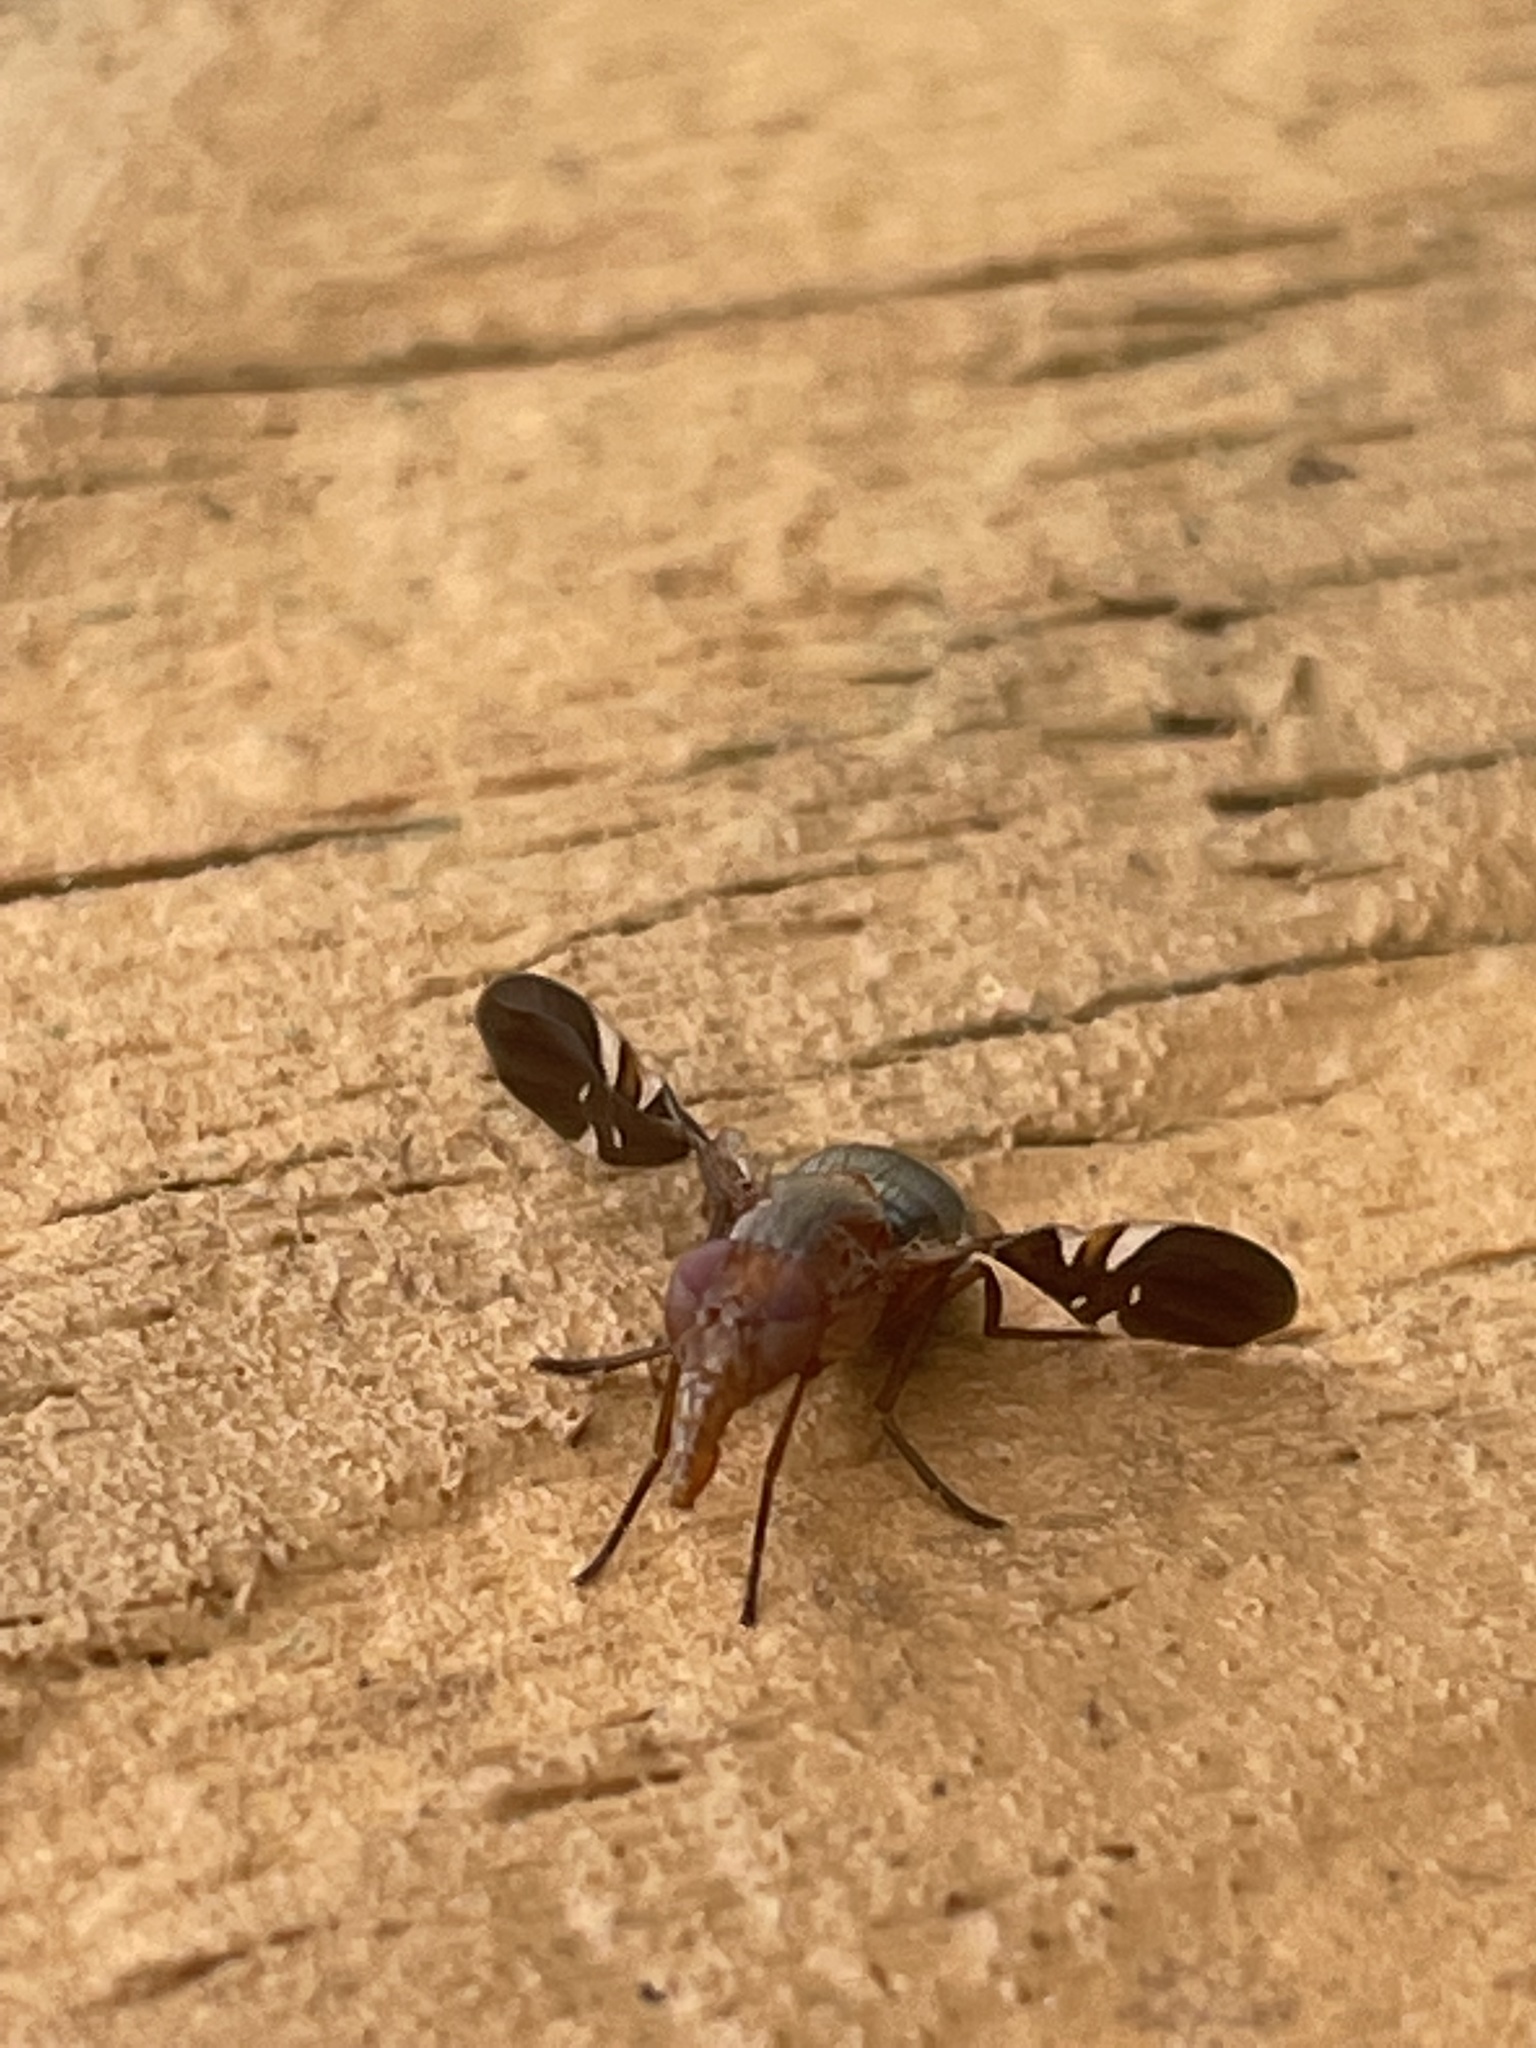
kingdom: Animalia
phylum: Arthropoda
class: Insecta
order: Diptera
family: Ulidiidae
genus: Delphinia
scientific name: Delphinia picta
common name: Common picture-winged fly
